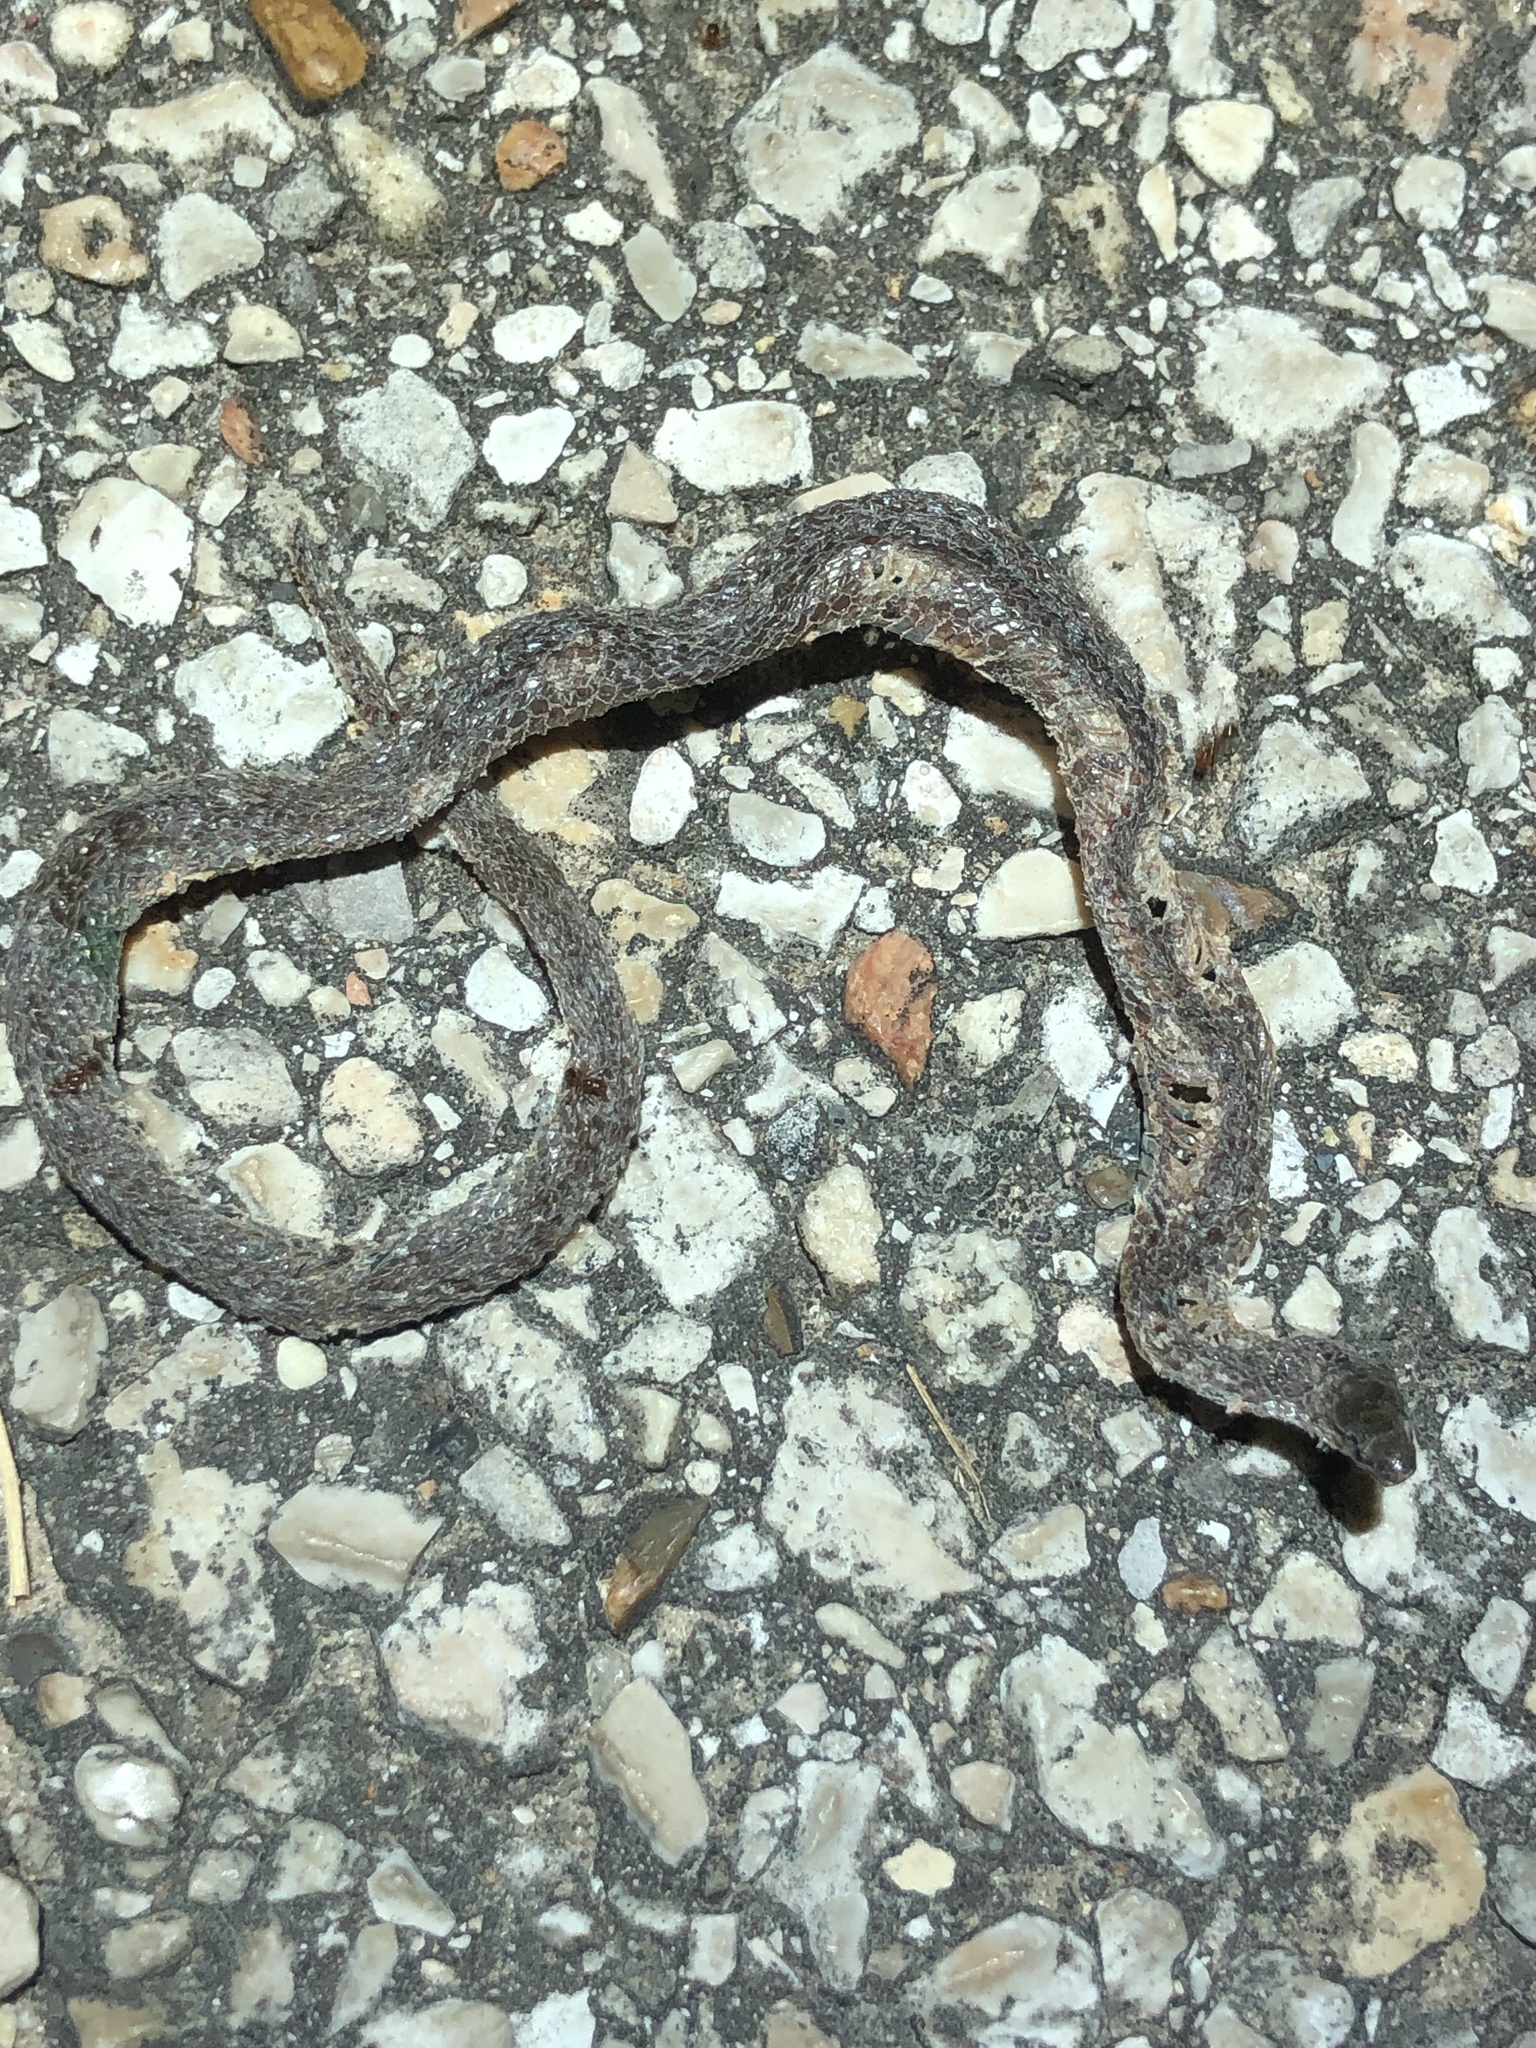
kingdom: Animalia
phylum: Chordata
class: Squamata
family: Colubridae
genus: Haldea
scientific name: Haldea striatula
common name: Rough earth snake
